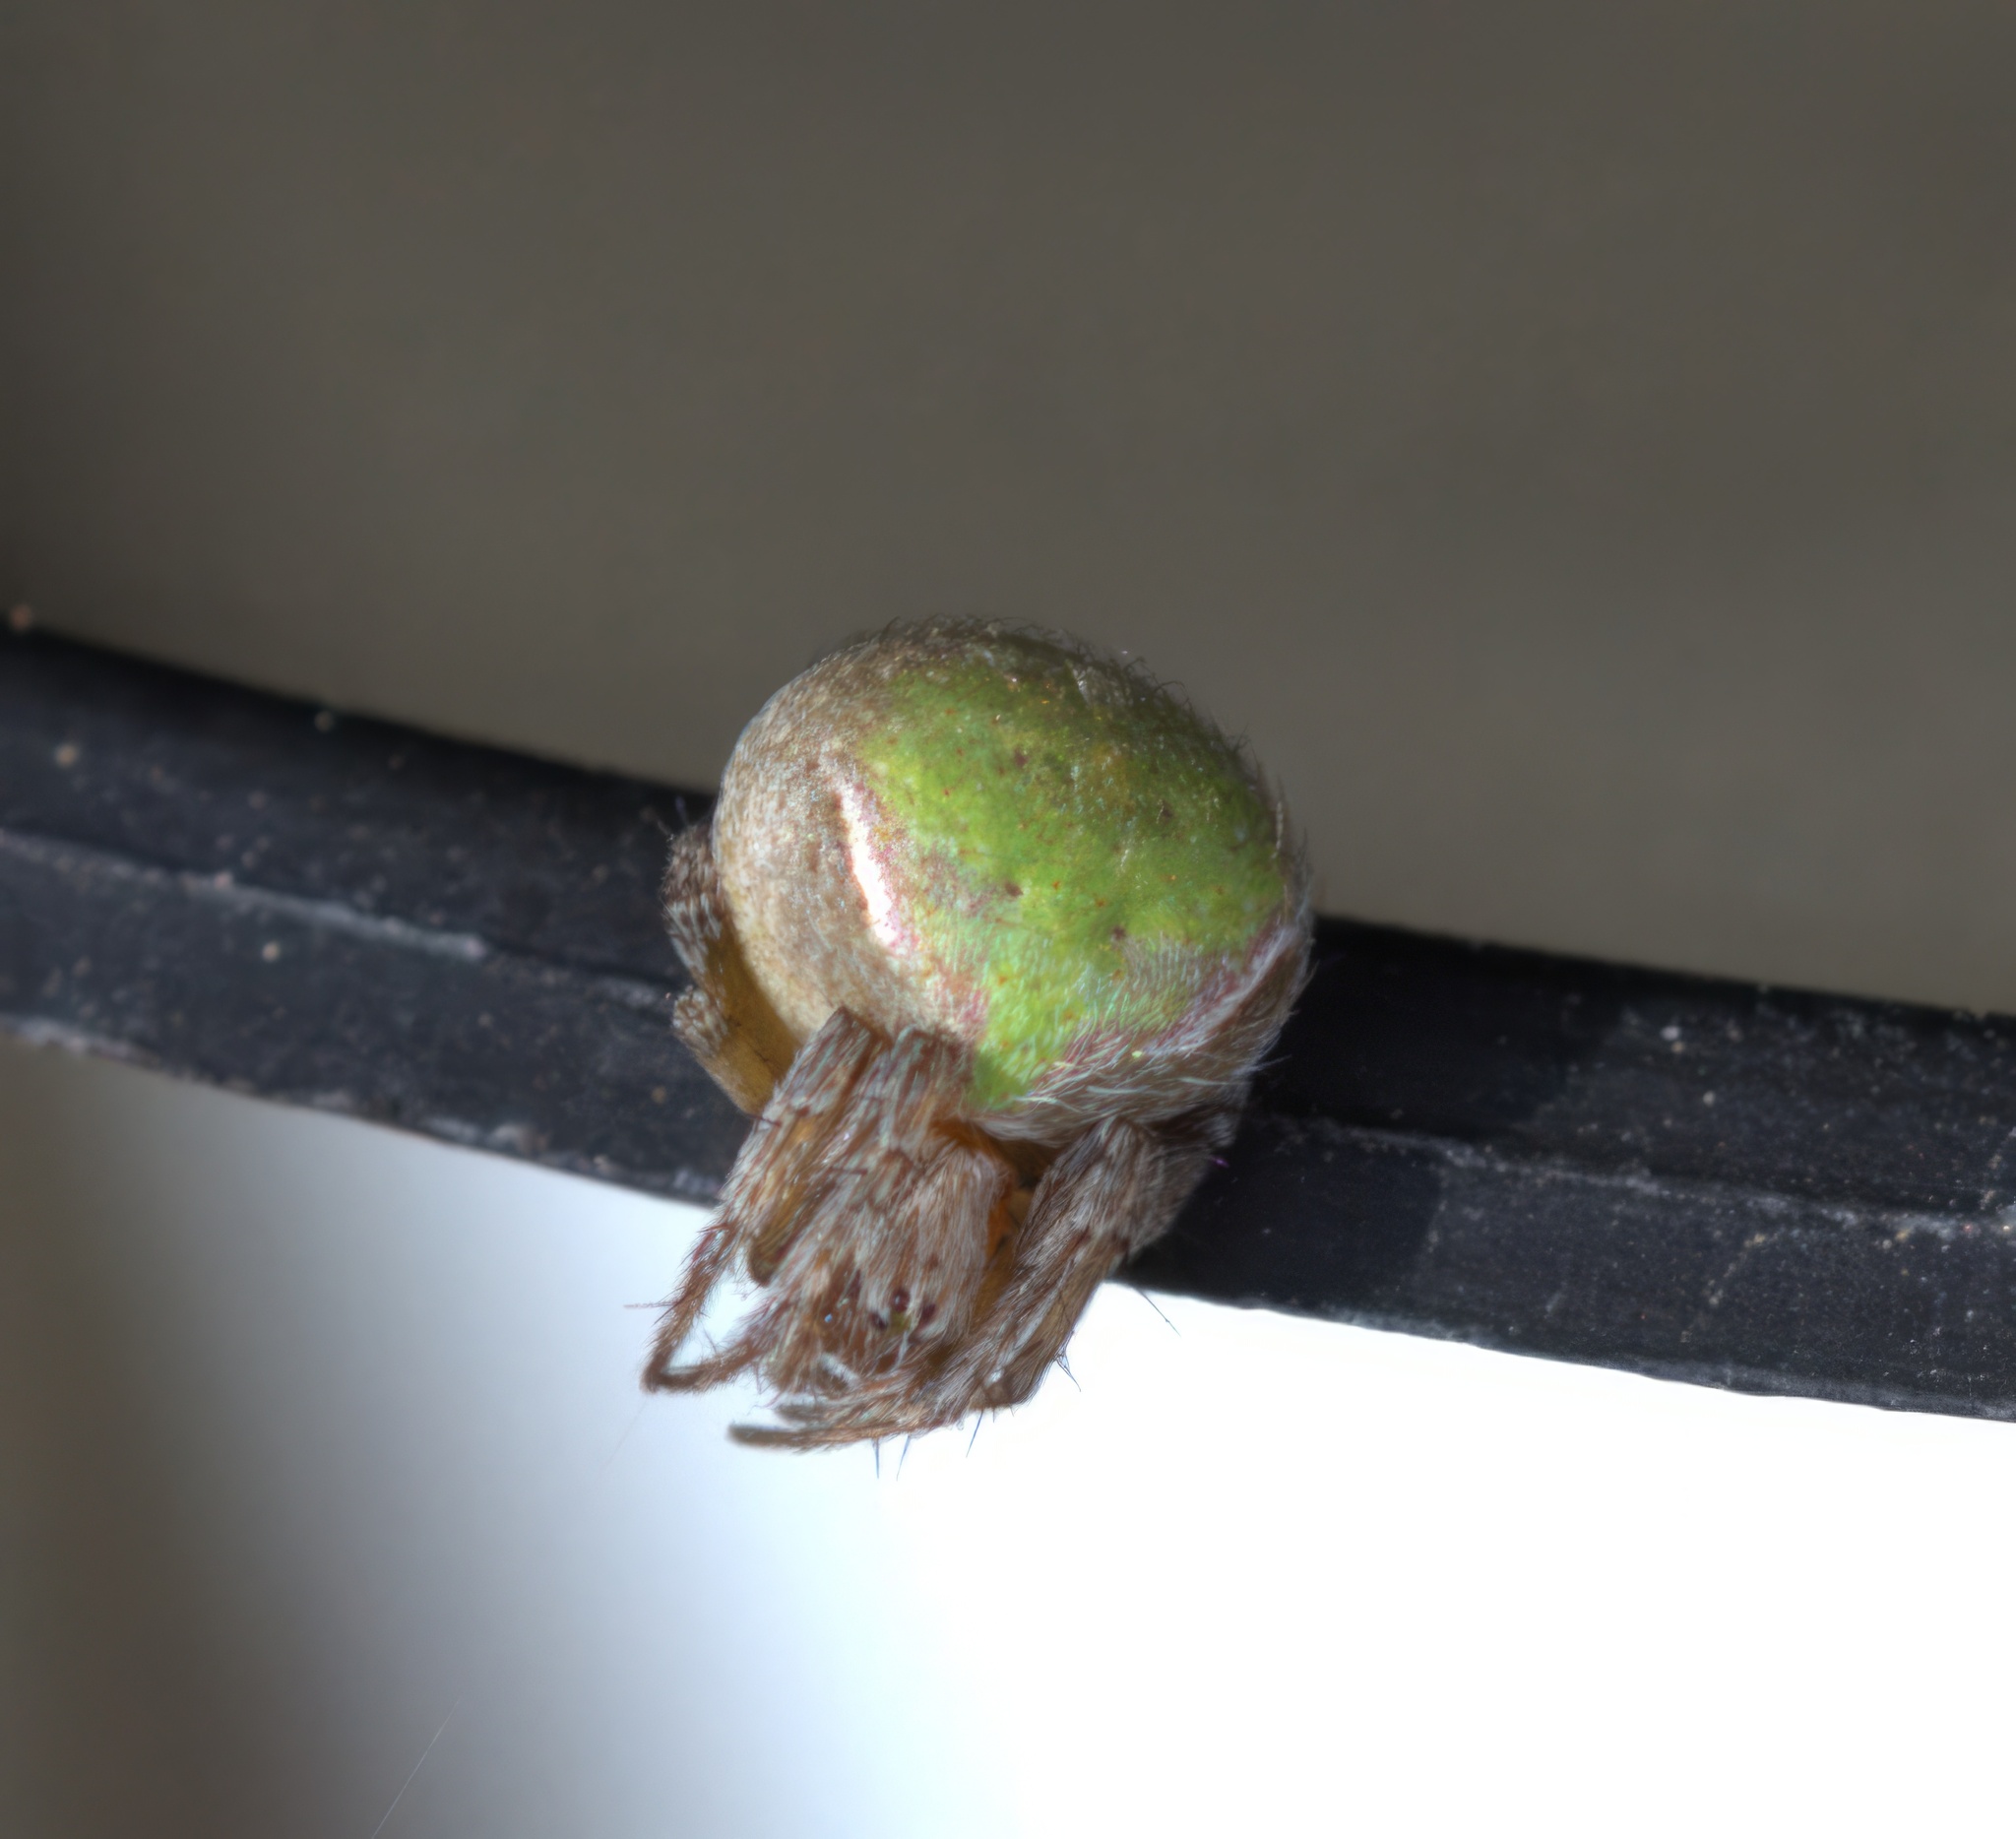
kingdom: Animalia
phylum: Arthropoda
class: Arachnida
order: Araneae
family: Araneidae
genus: Araneus
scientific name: Araneus detrimentosus
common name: Orb weavers
